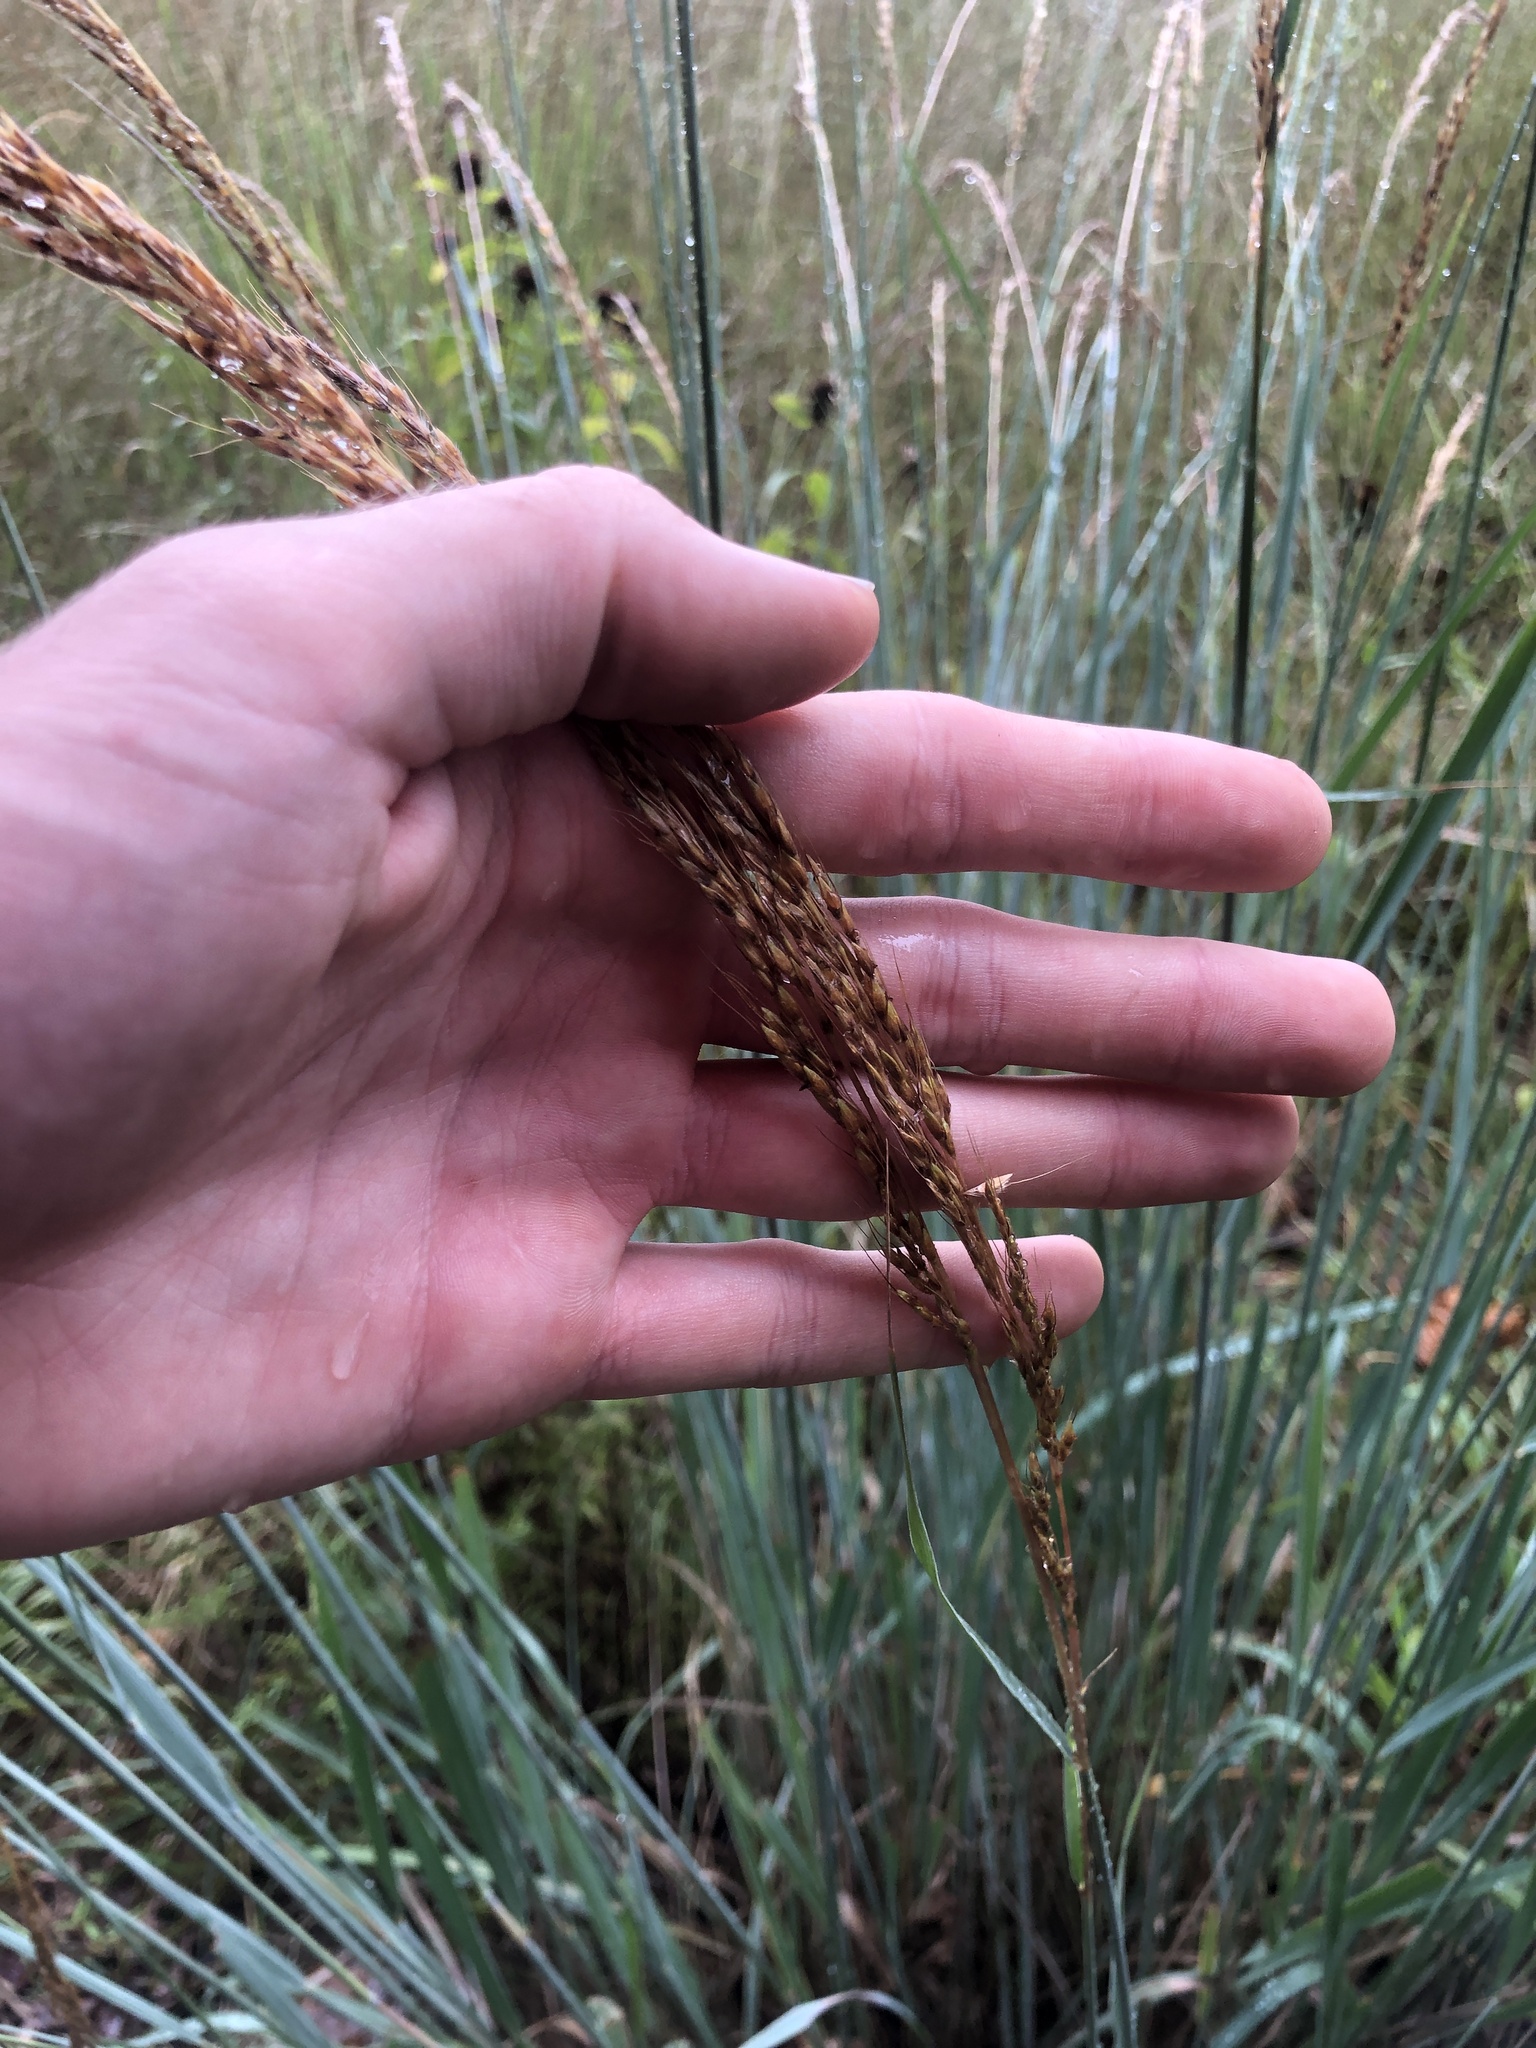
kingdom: Plantae
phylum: Tracheophyta
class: Liliopsida
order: Poales
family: Poaceae
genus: Sorghastrum
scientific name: Sorghastrum nutans
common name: Indian grass
